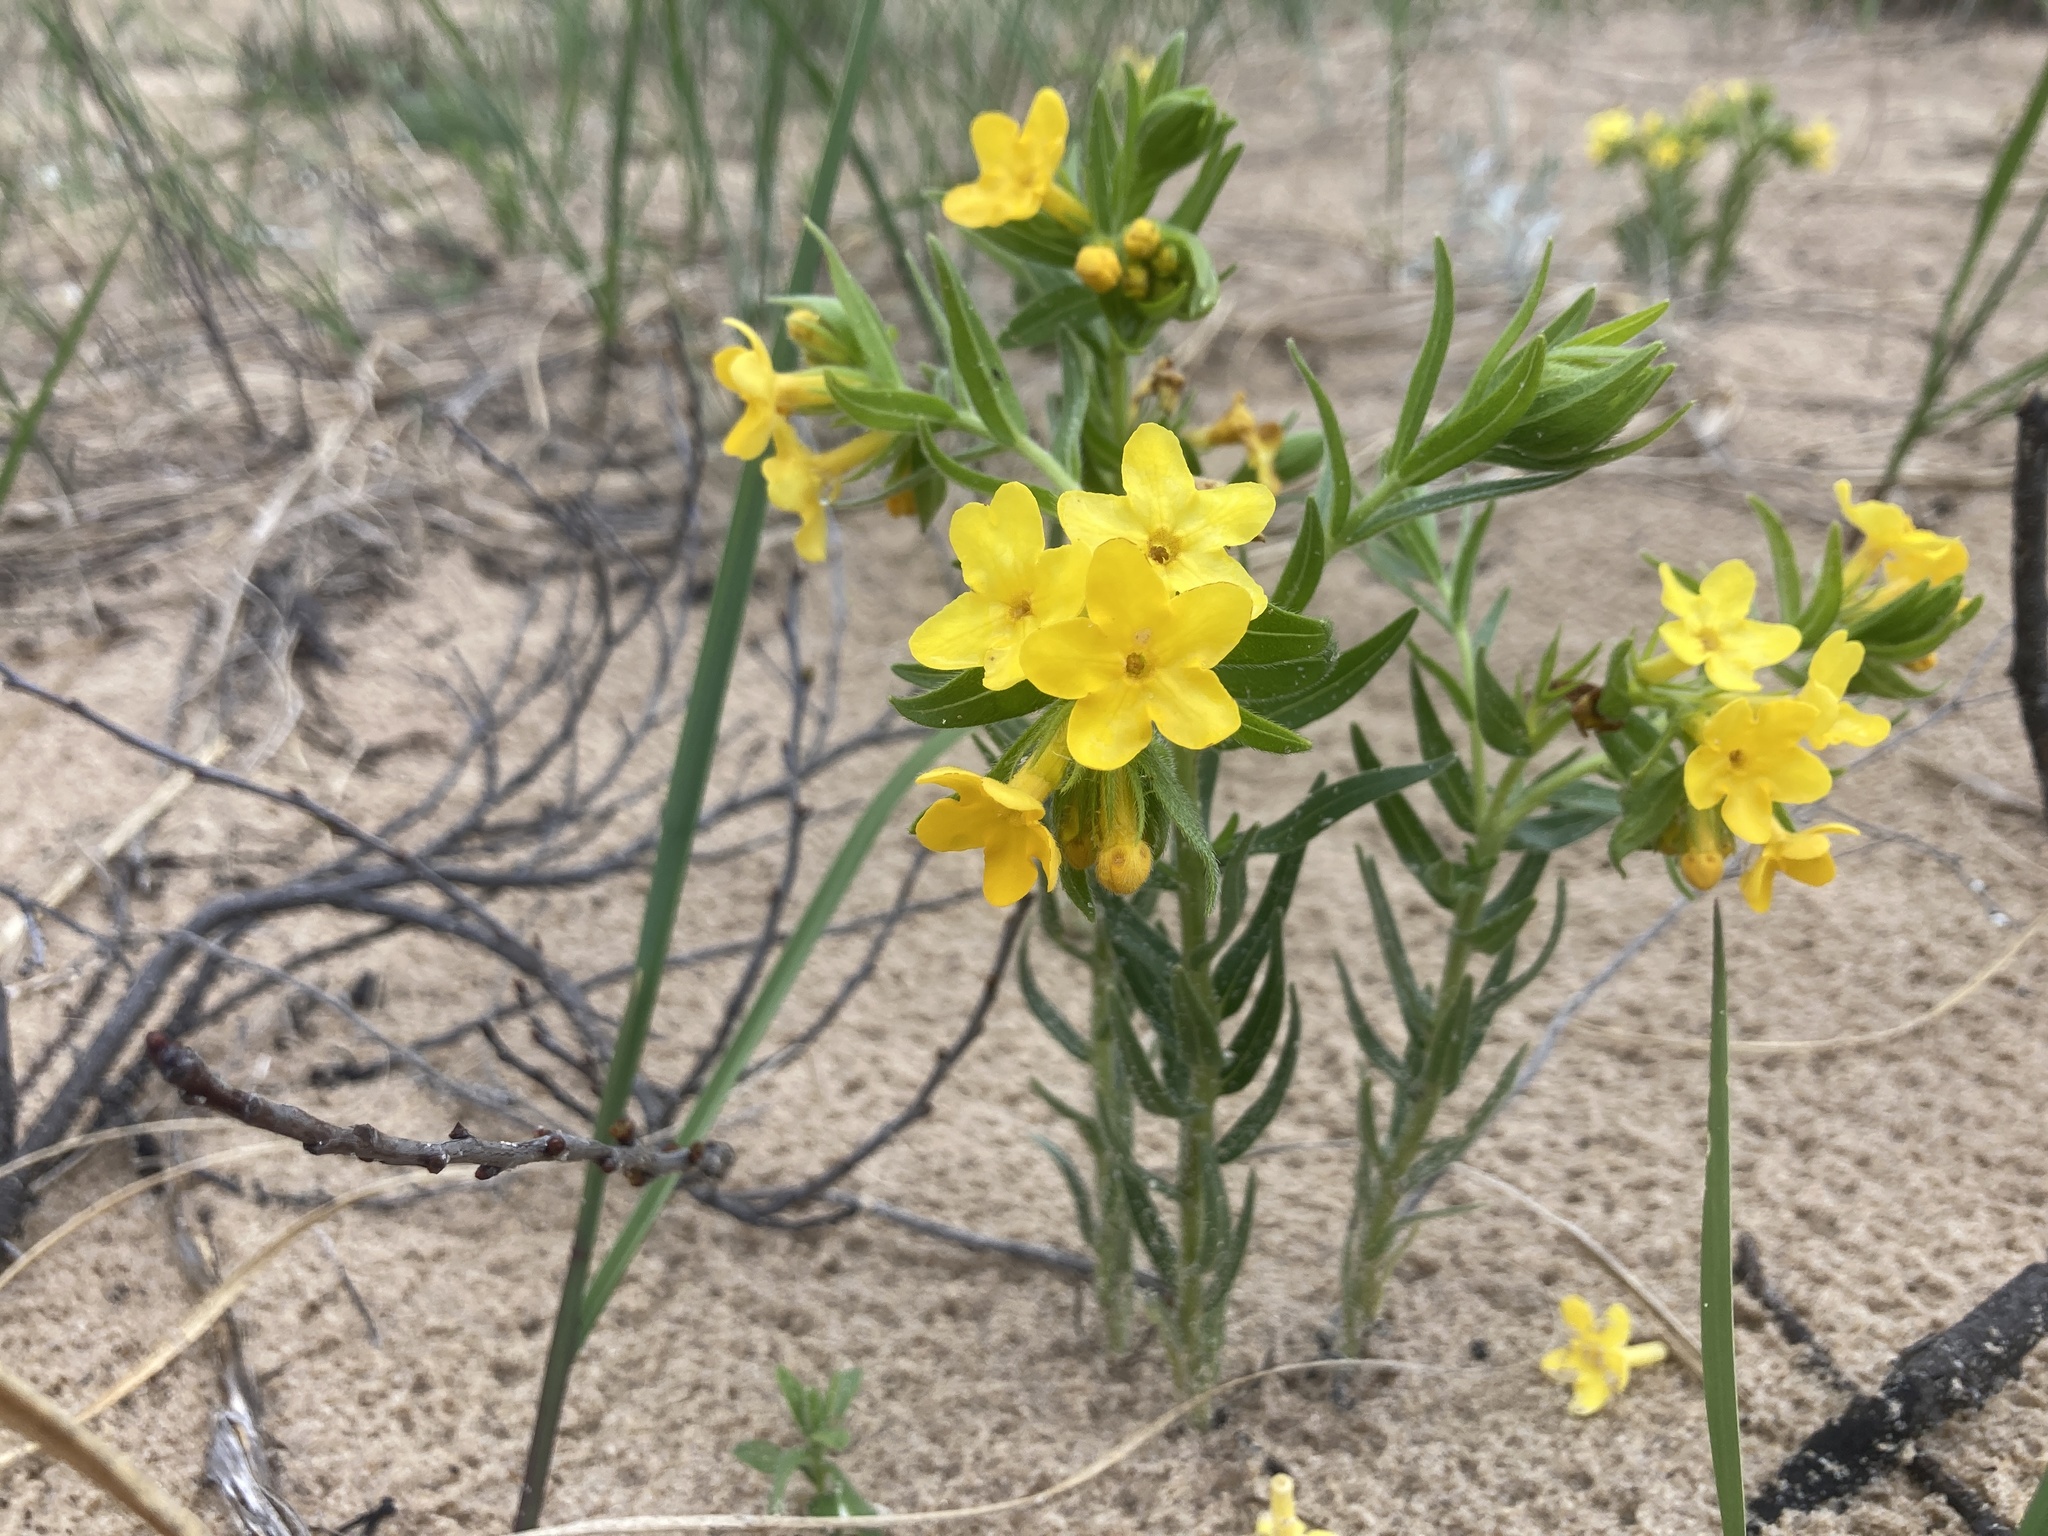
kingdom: Plantae
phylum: Tracheophyta
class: Magnoliopsida
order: Boraginales
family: Boraginaceae
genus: Lithospermum
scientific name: Lithospermum caroliniense
